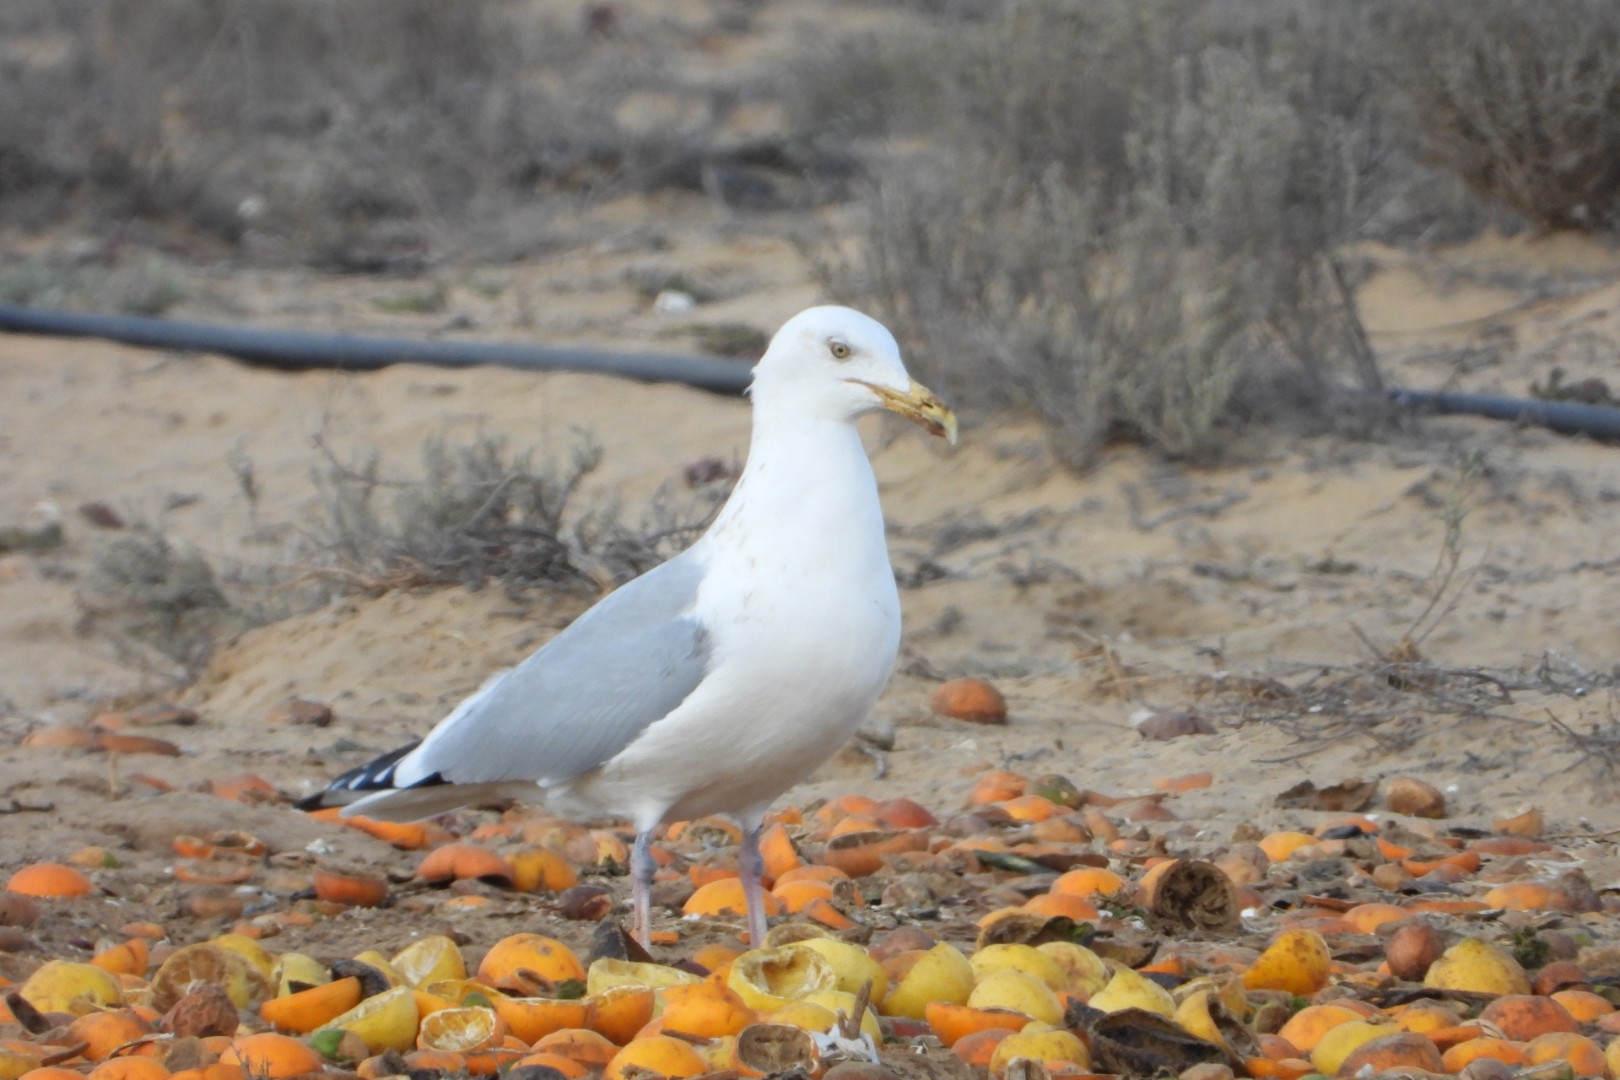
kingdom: Animalia
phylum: Chordata
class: Aves
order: Charadriiformes
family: Laridae
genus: Larus
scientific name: Larus argentatus
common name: Herring gull
